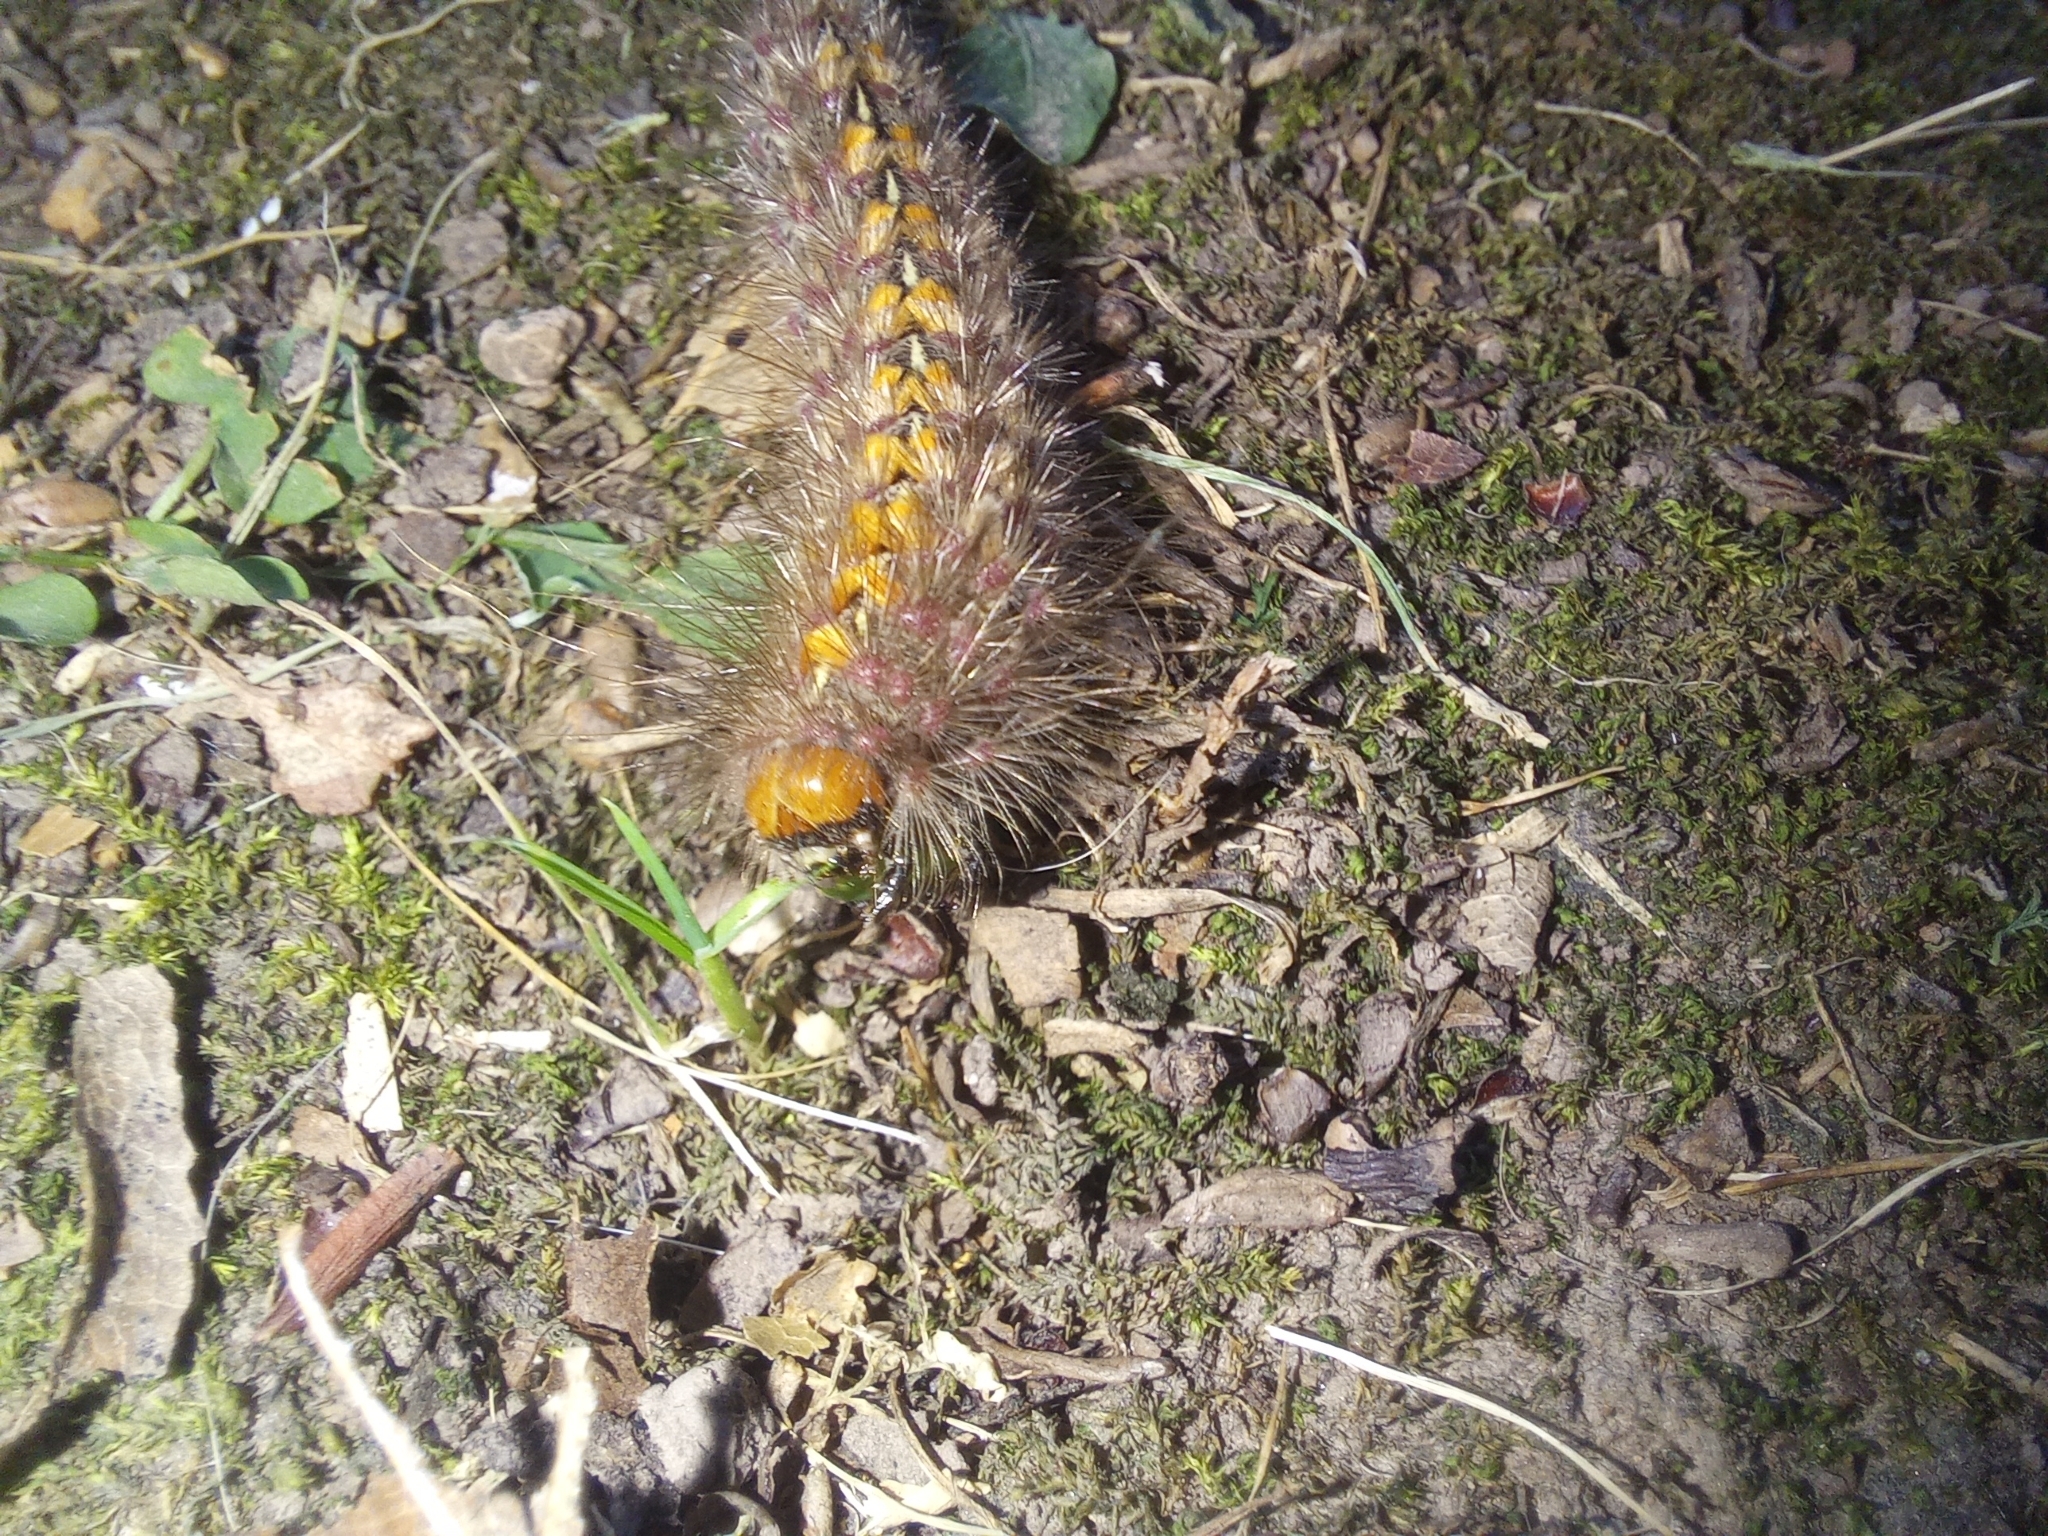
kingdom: Animalia
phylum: Arthropoda
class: Insecta
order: Lepidoptera
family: Erebidae
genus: Paracles
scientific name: Paracles fusca
